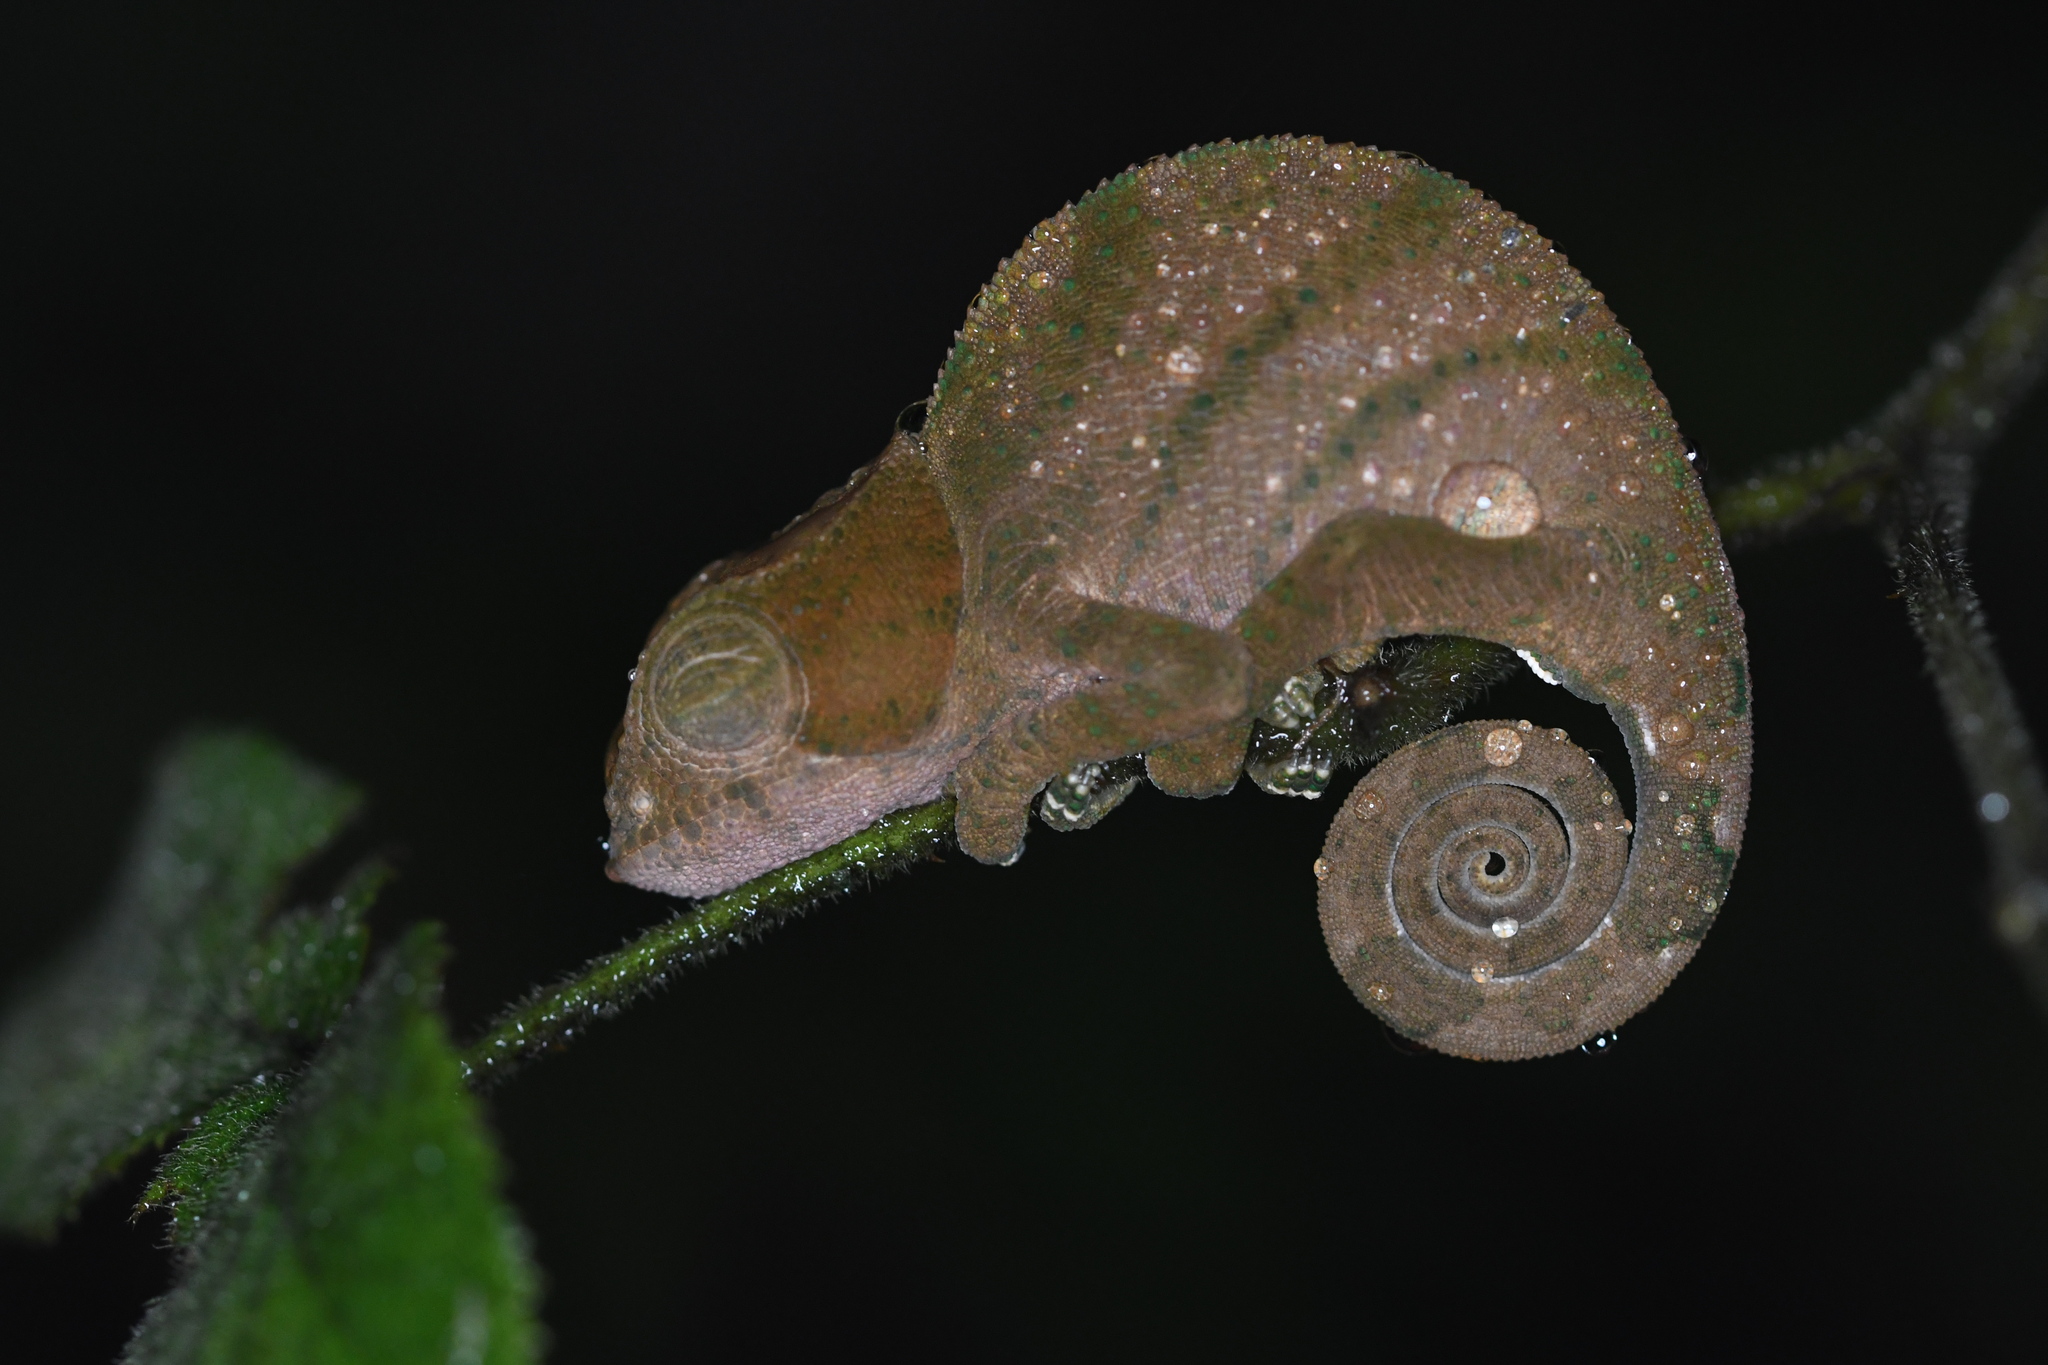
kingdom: Animalia
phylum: Chordata
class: Squamata
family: Chamaeleonidae
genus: Calumma
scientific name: Calumma oshaughnessyi
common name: O'shaughnessy's chameleon
